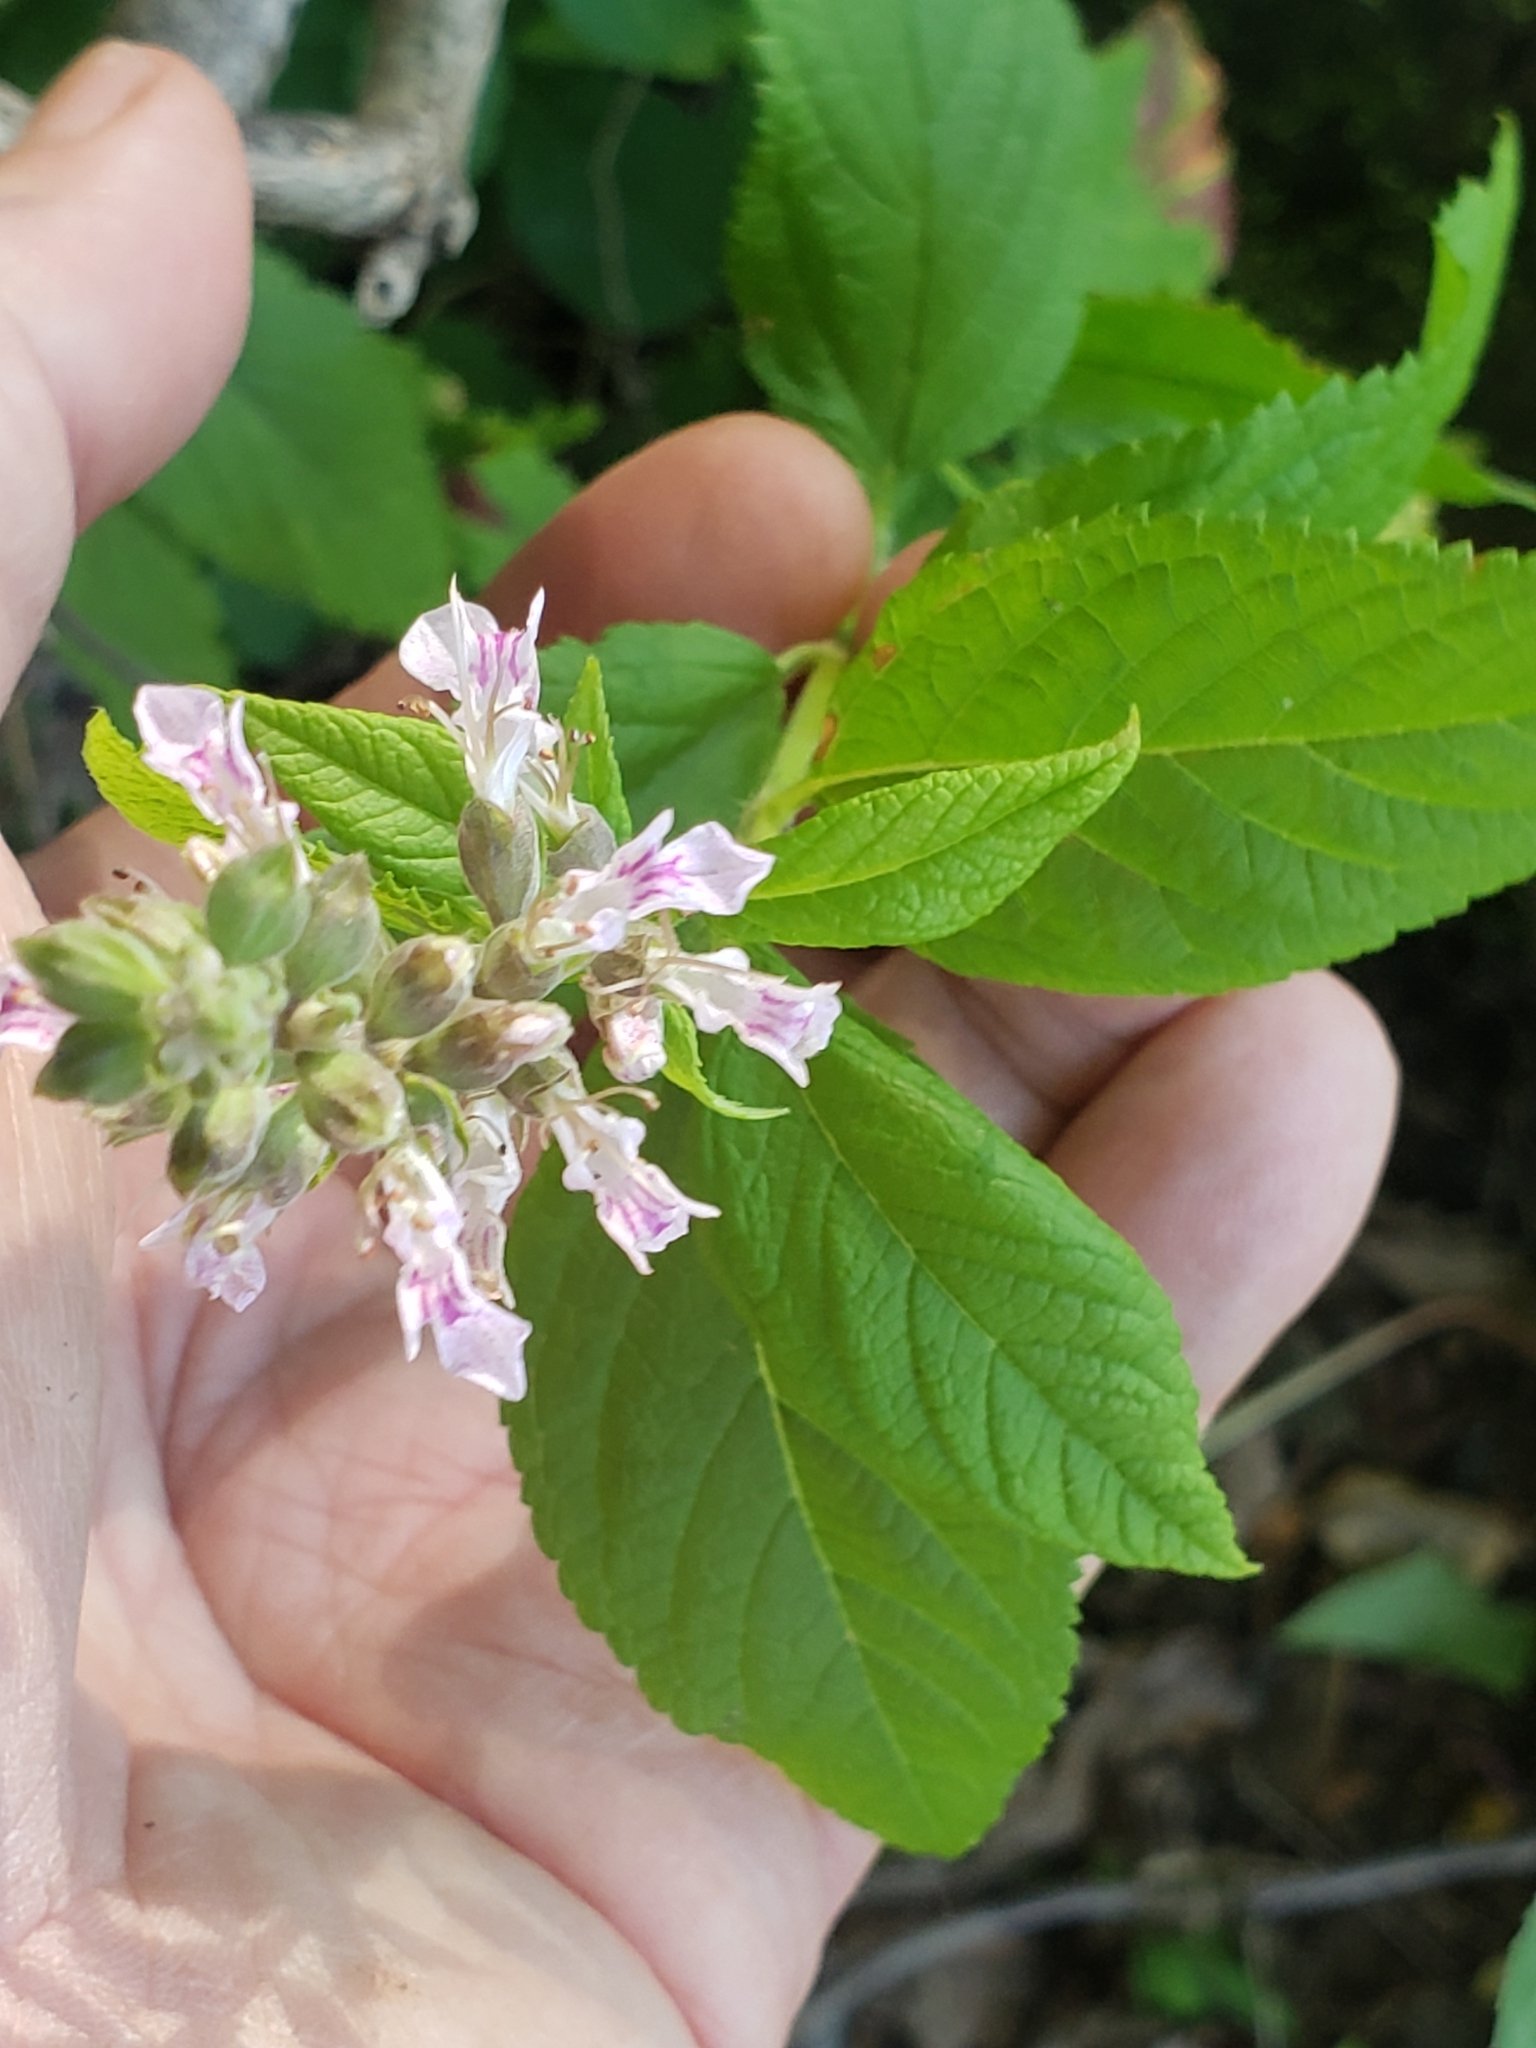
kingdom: Plantae
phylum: Tracheophyta
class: Magnoliopsida
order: Lamiales
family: Lamiaceae
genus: Teucrium
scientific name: Teucrium canadense
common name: American germander
